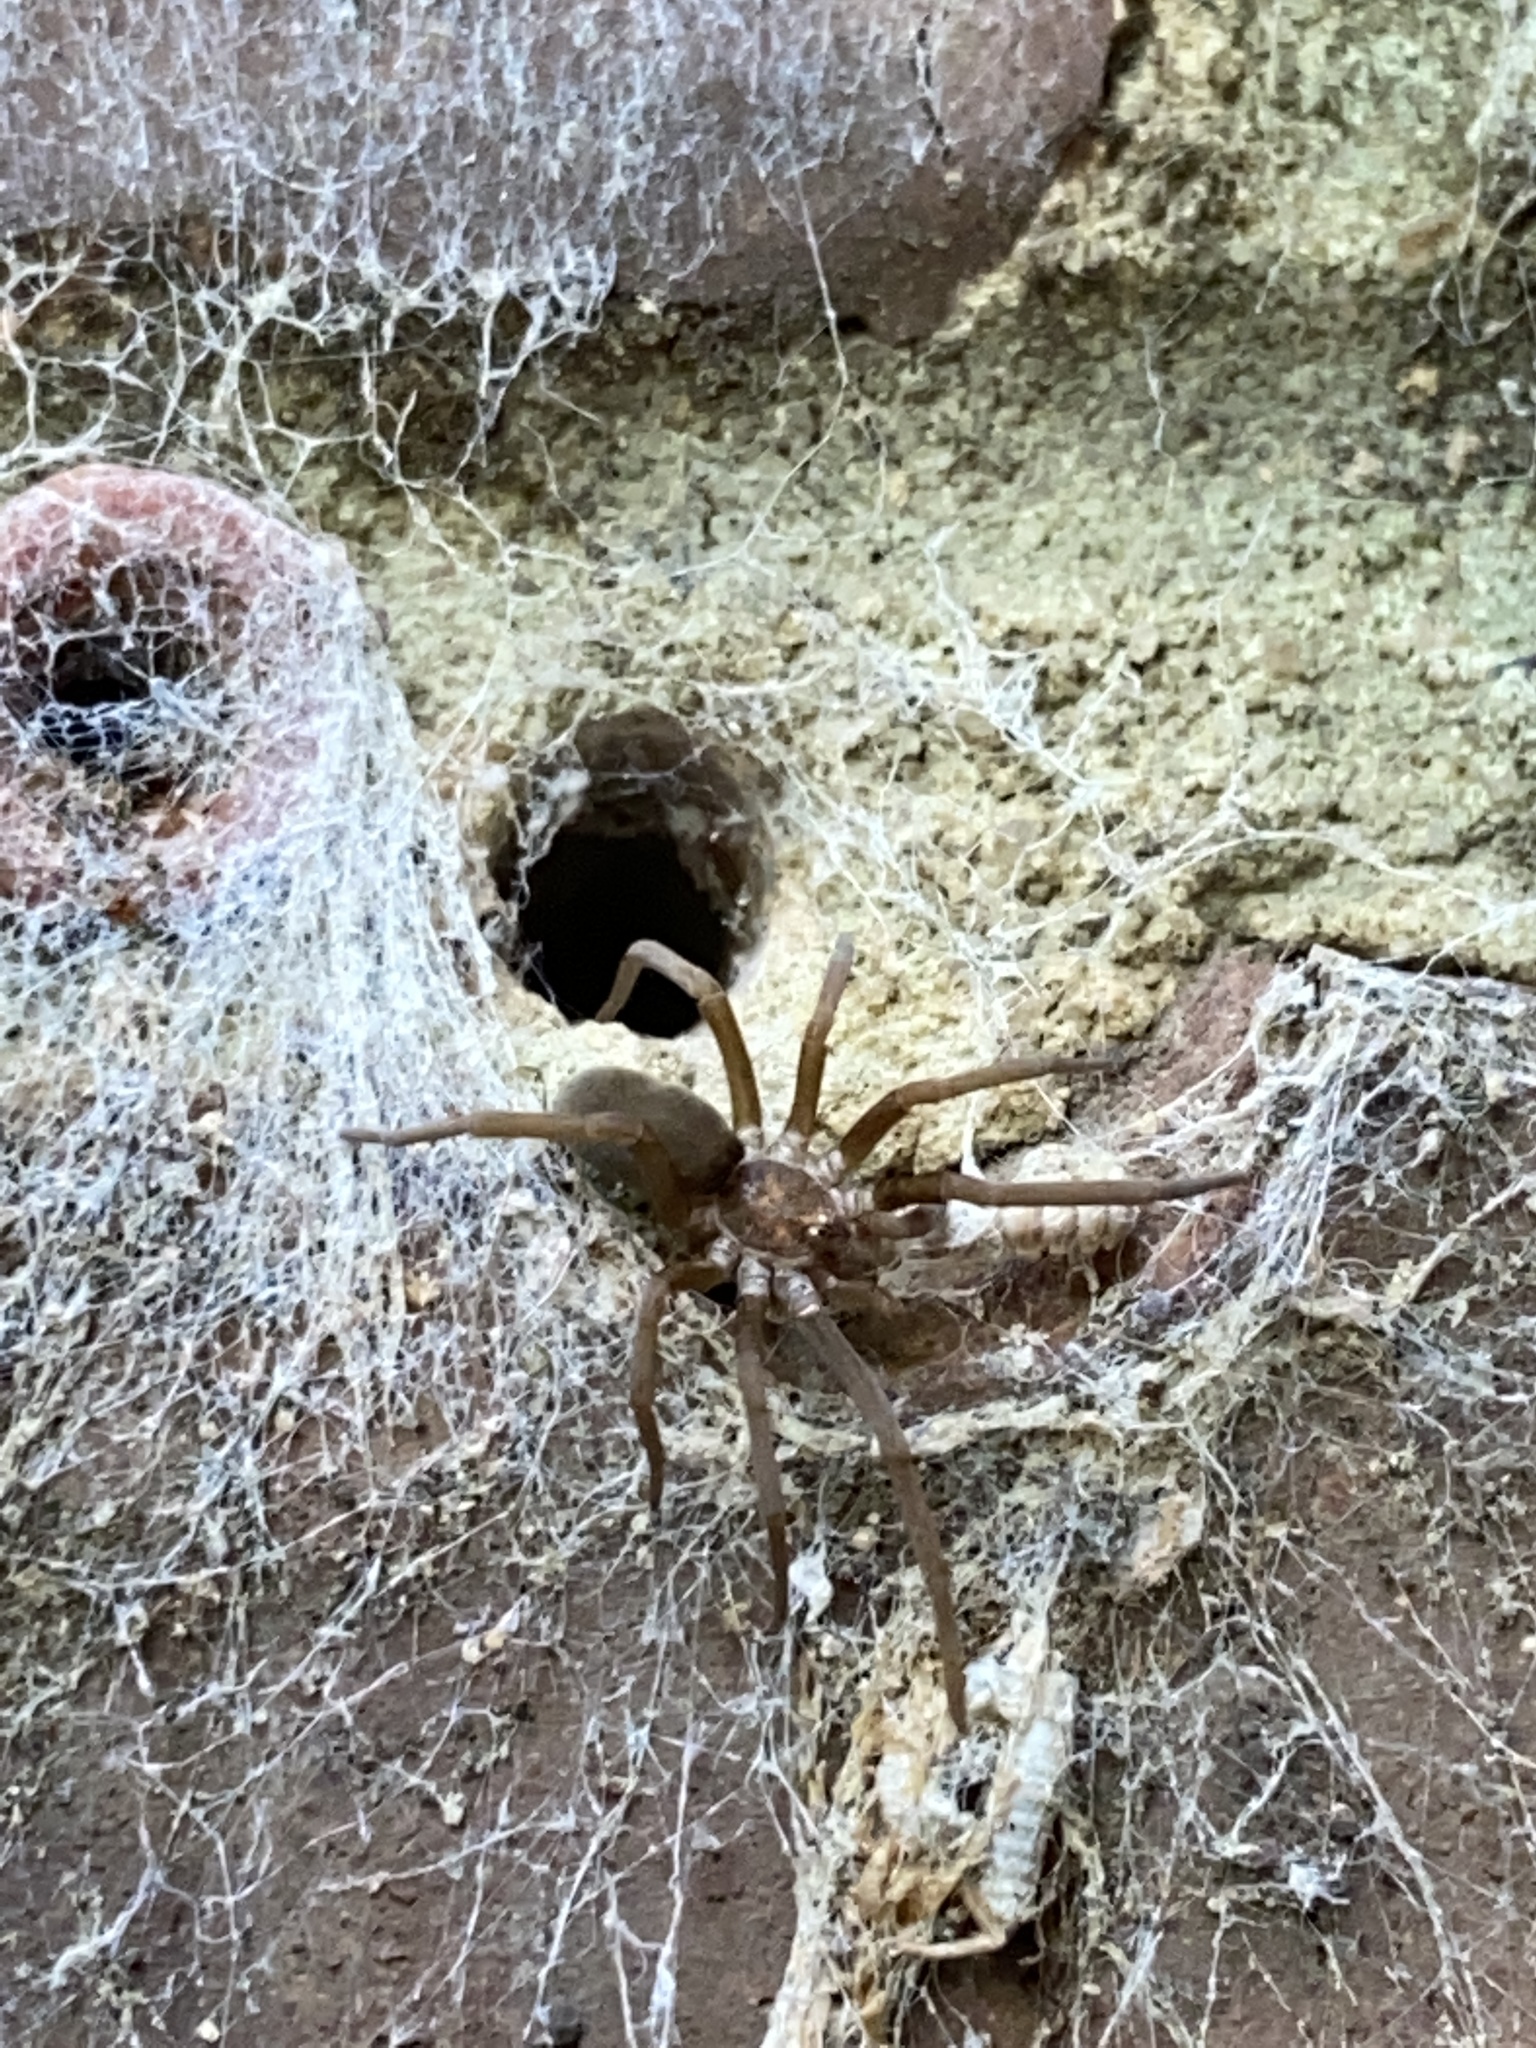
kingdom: Animalia
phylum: Arthropoda
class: Arachnida
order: Araneae
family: Filistatidae
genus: Kukulcania
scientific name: Kukulcania hibernalis
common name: Crevice weaver
